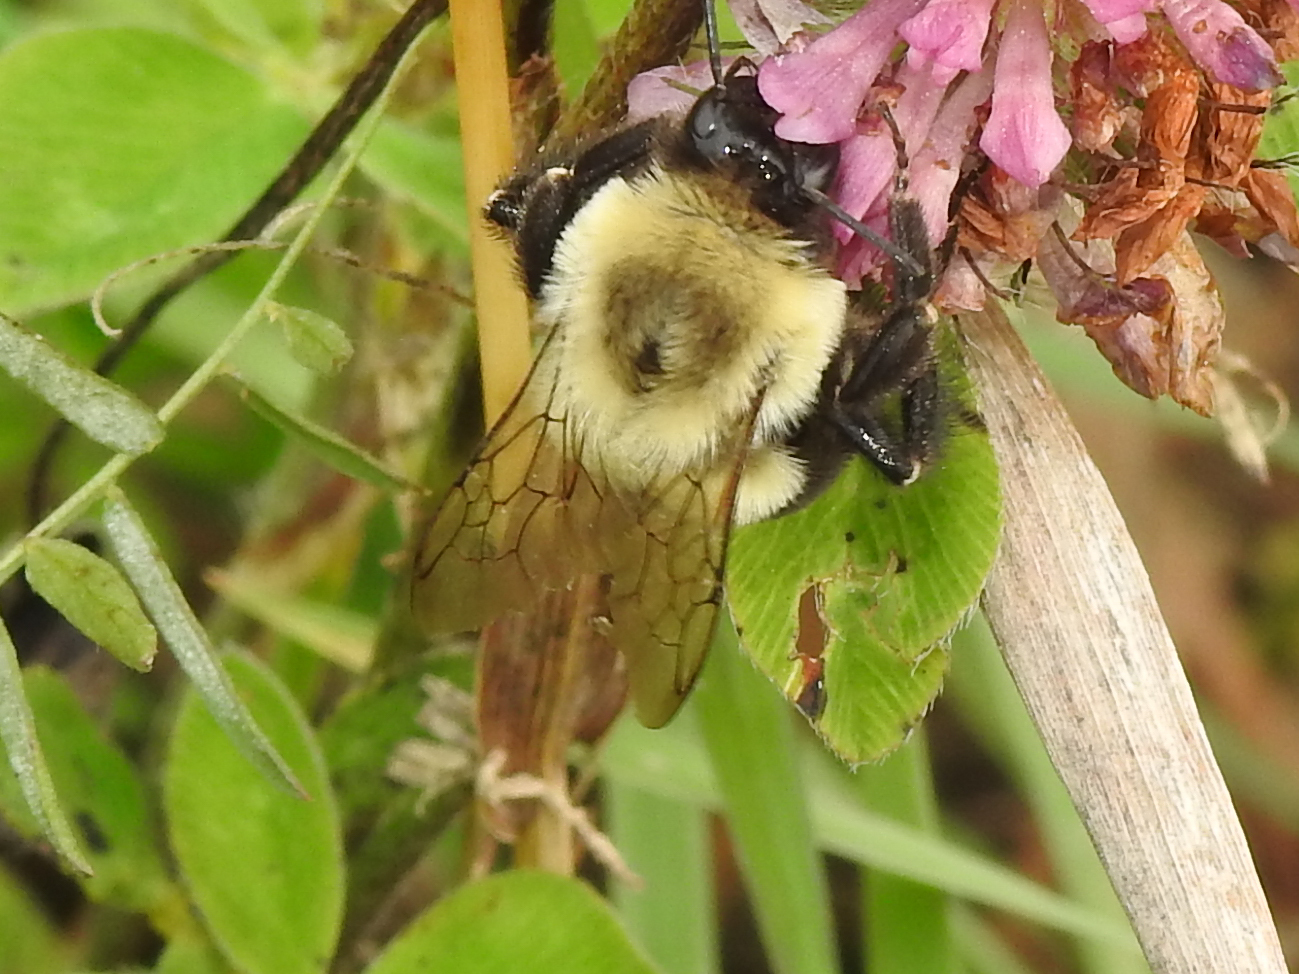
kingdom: Animalia
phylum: Arthropoda
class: Insecta
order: Hymenoptera
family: Apidae
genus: Bombus
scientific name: Bombus impatiens
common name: Common eastern bumble bee
